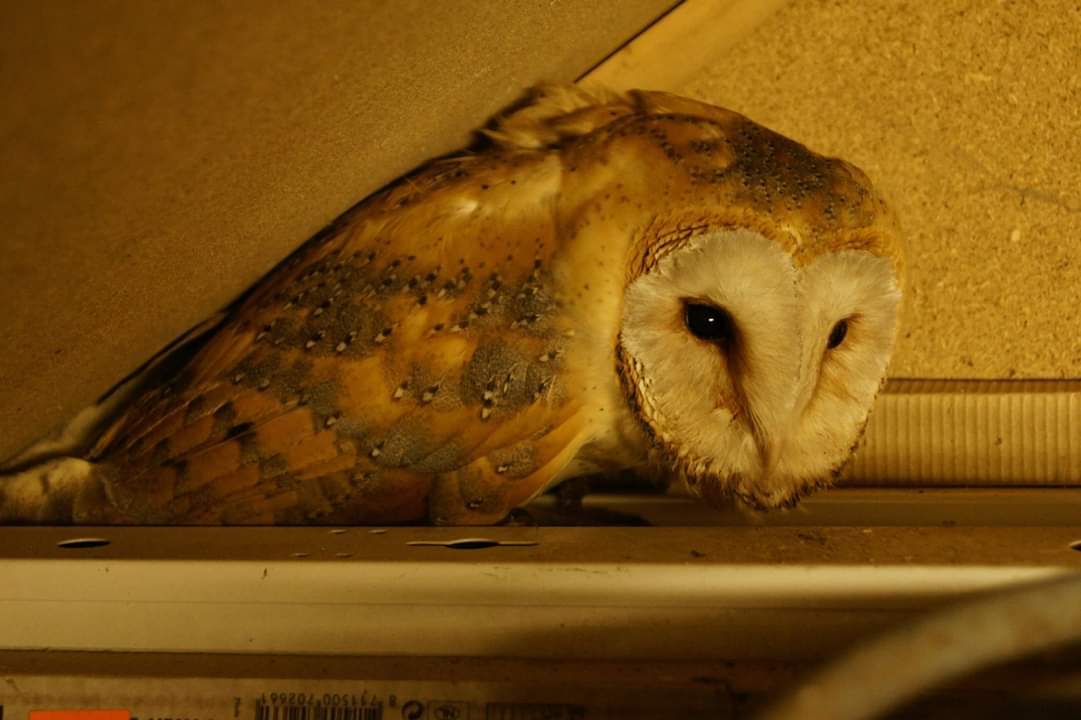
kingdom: Animalia
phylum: Chordata
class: Aves
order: Strigiformes
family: Tytonidae
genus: Tyto
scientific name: Tyto alba
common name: Barn owl
